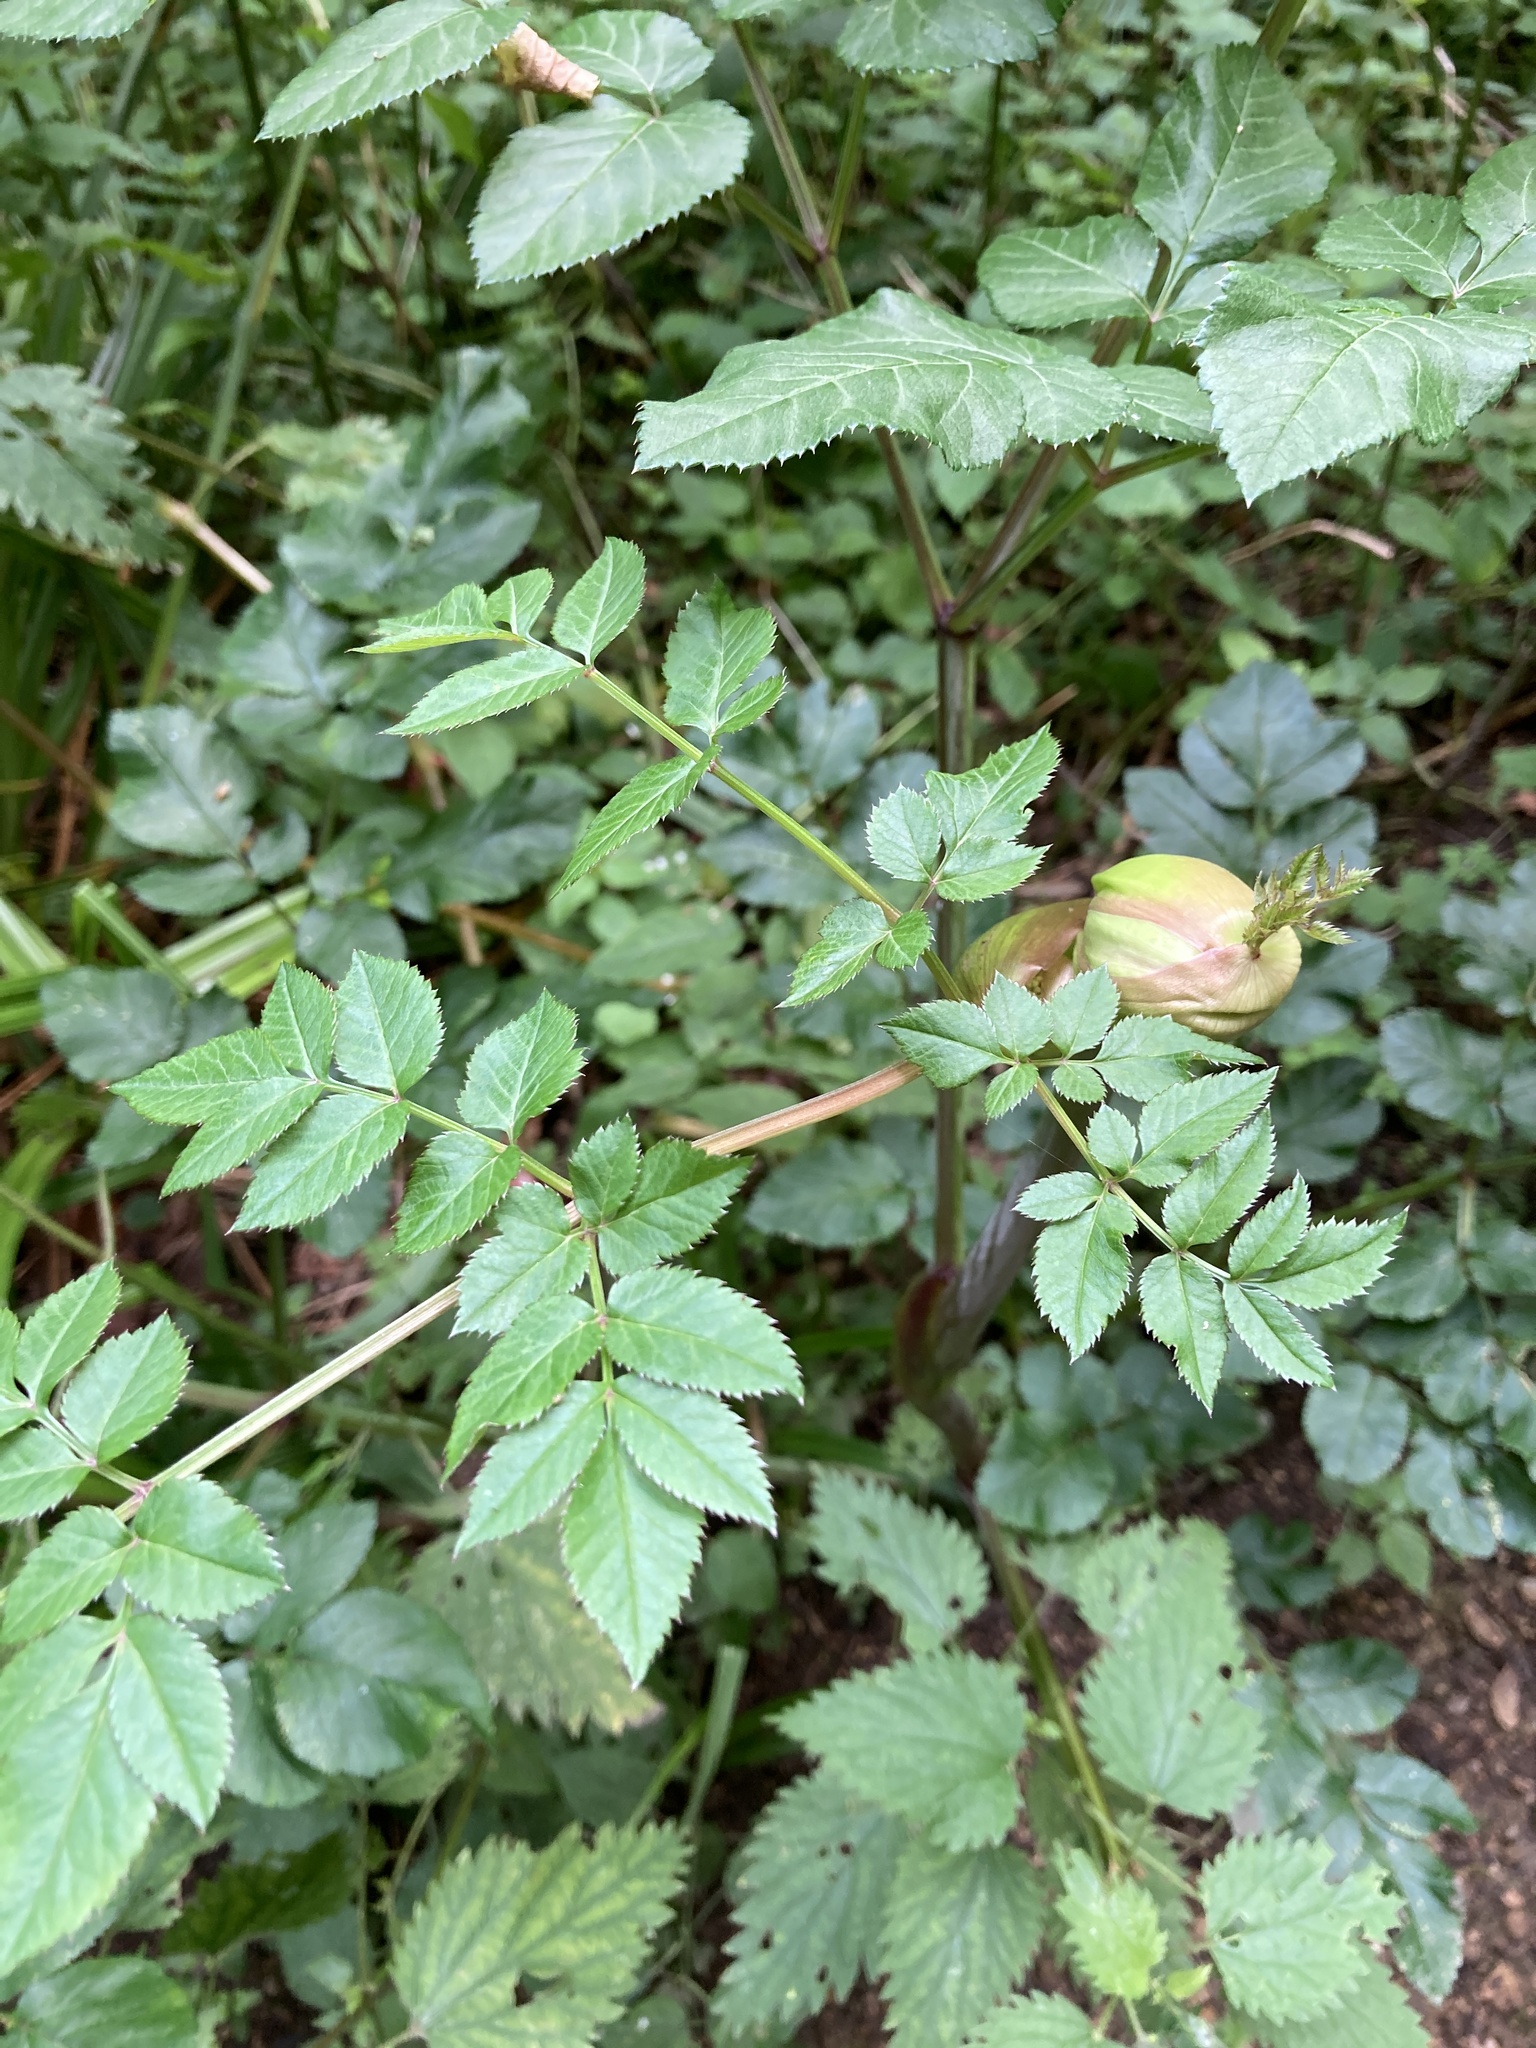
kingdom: Plantae
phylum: Tracheophyta
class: Magnoliopsida
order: Apiales
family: Apiaceae
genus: Angelica
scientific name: Angelica sylvestris
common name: Wild angelica
